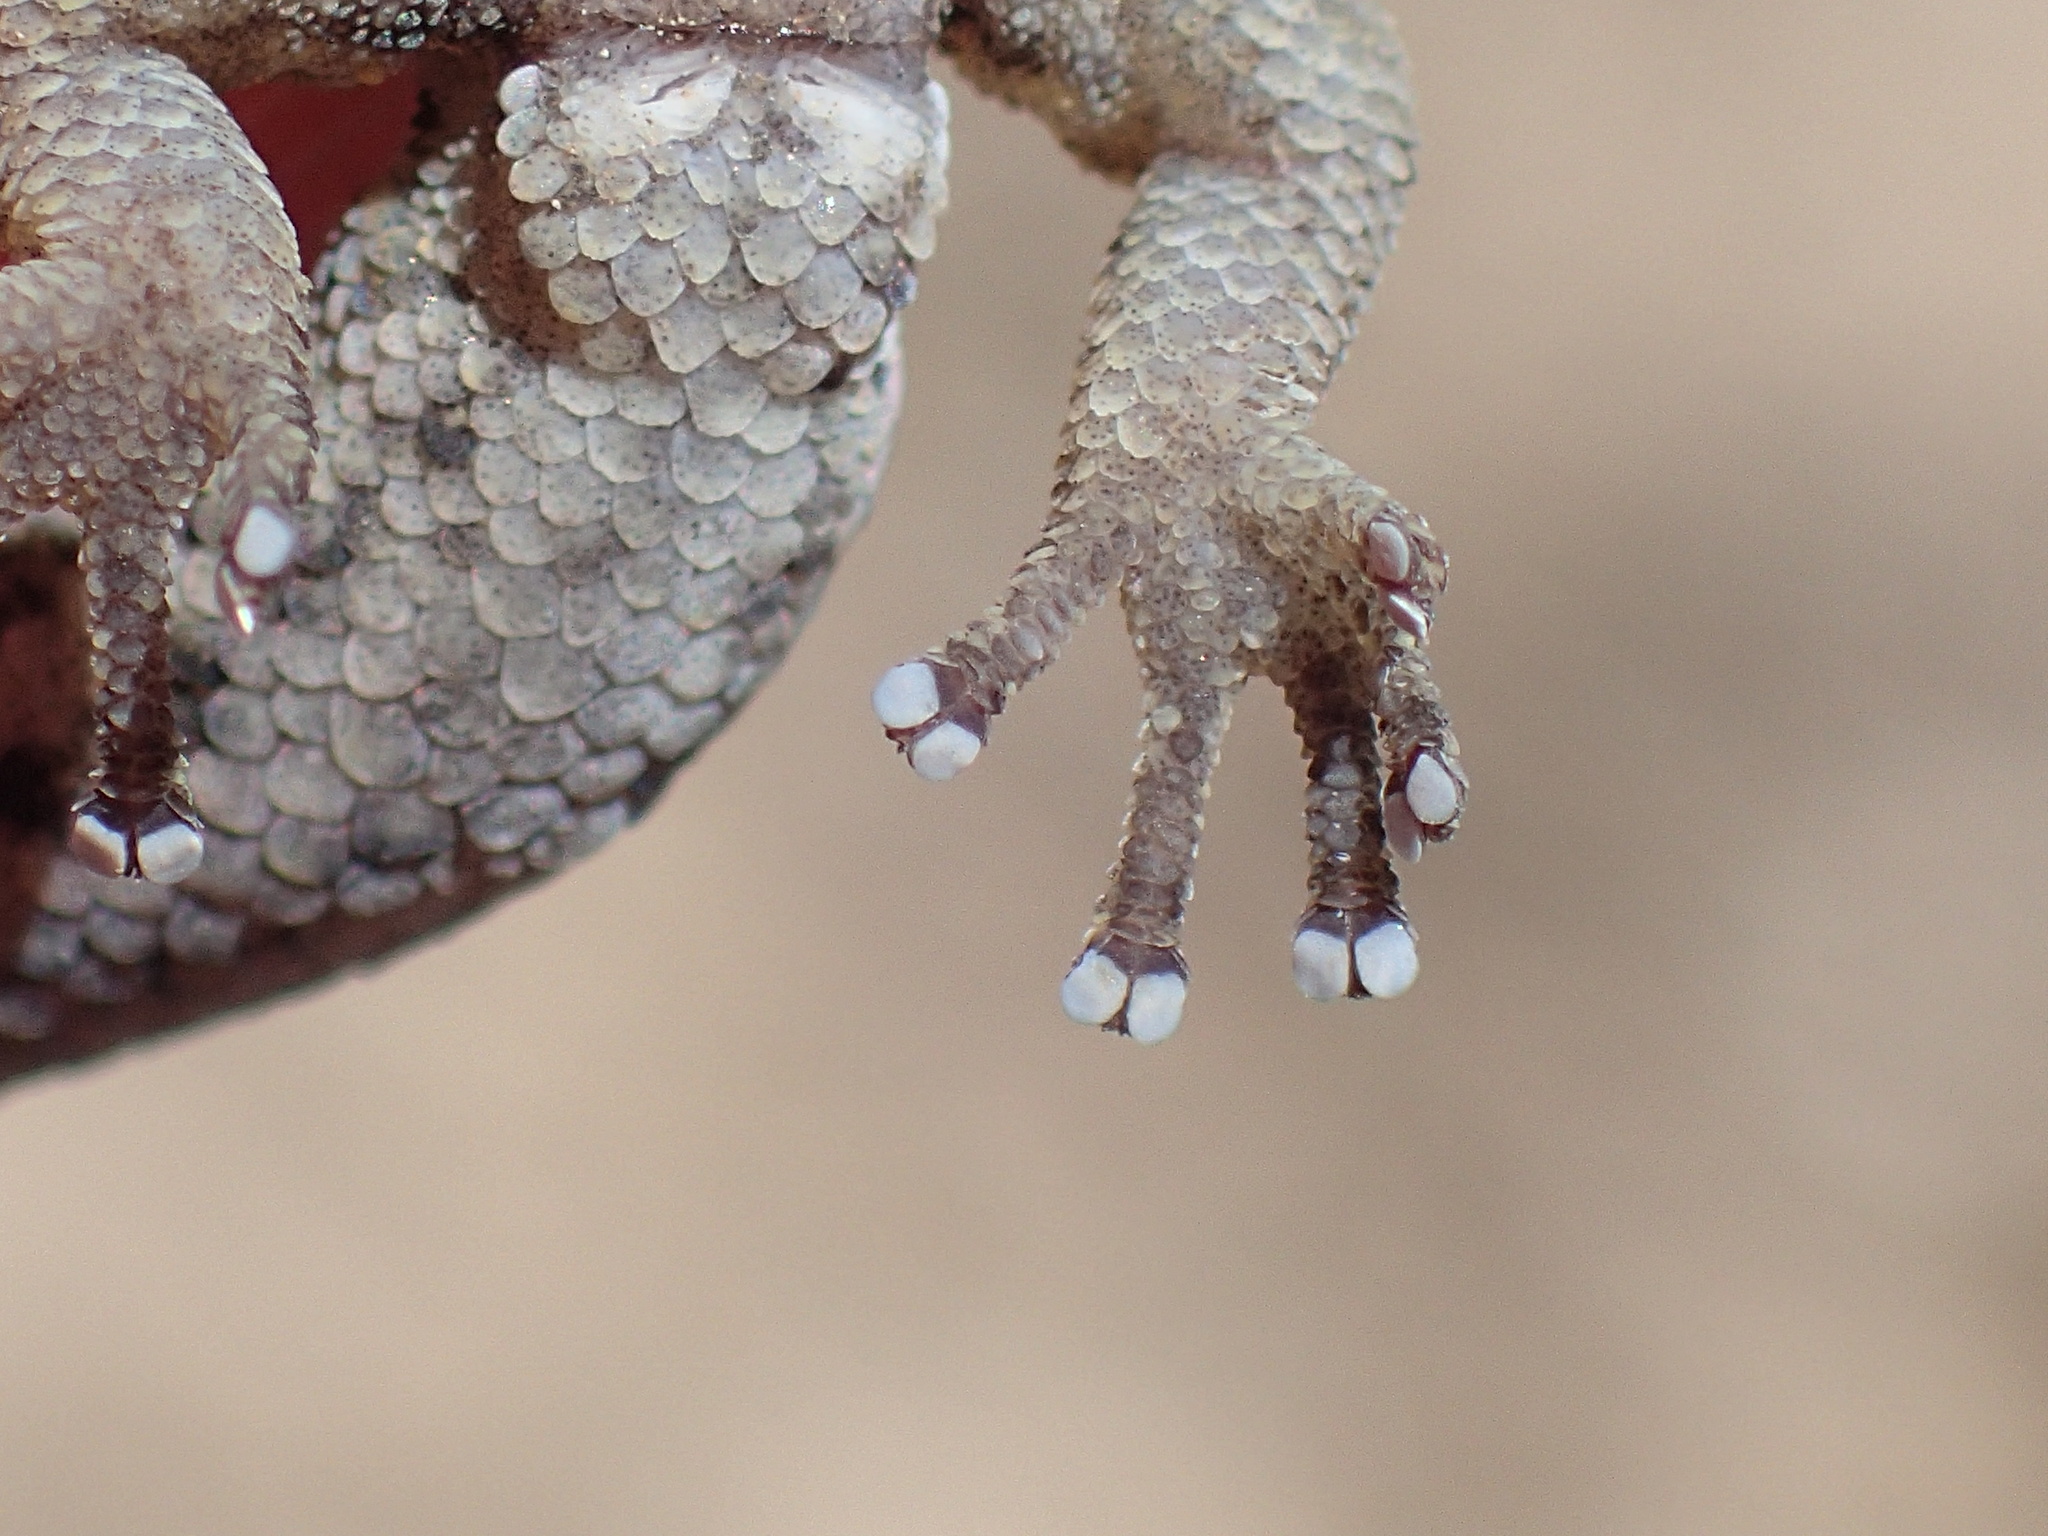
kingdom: Animalia
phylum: Chordata
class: Squamata
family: Gekkonidae
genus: Goggia
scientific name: Goggia incognita
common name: Cryptic pygmy gecko
